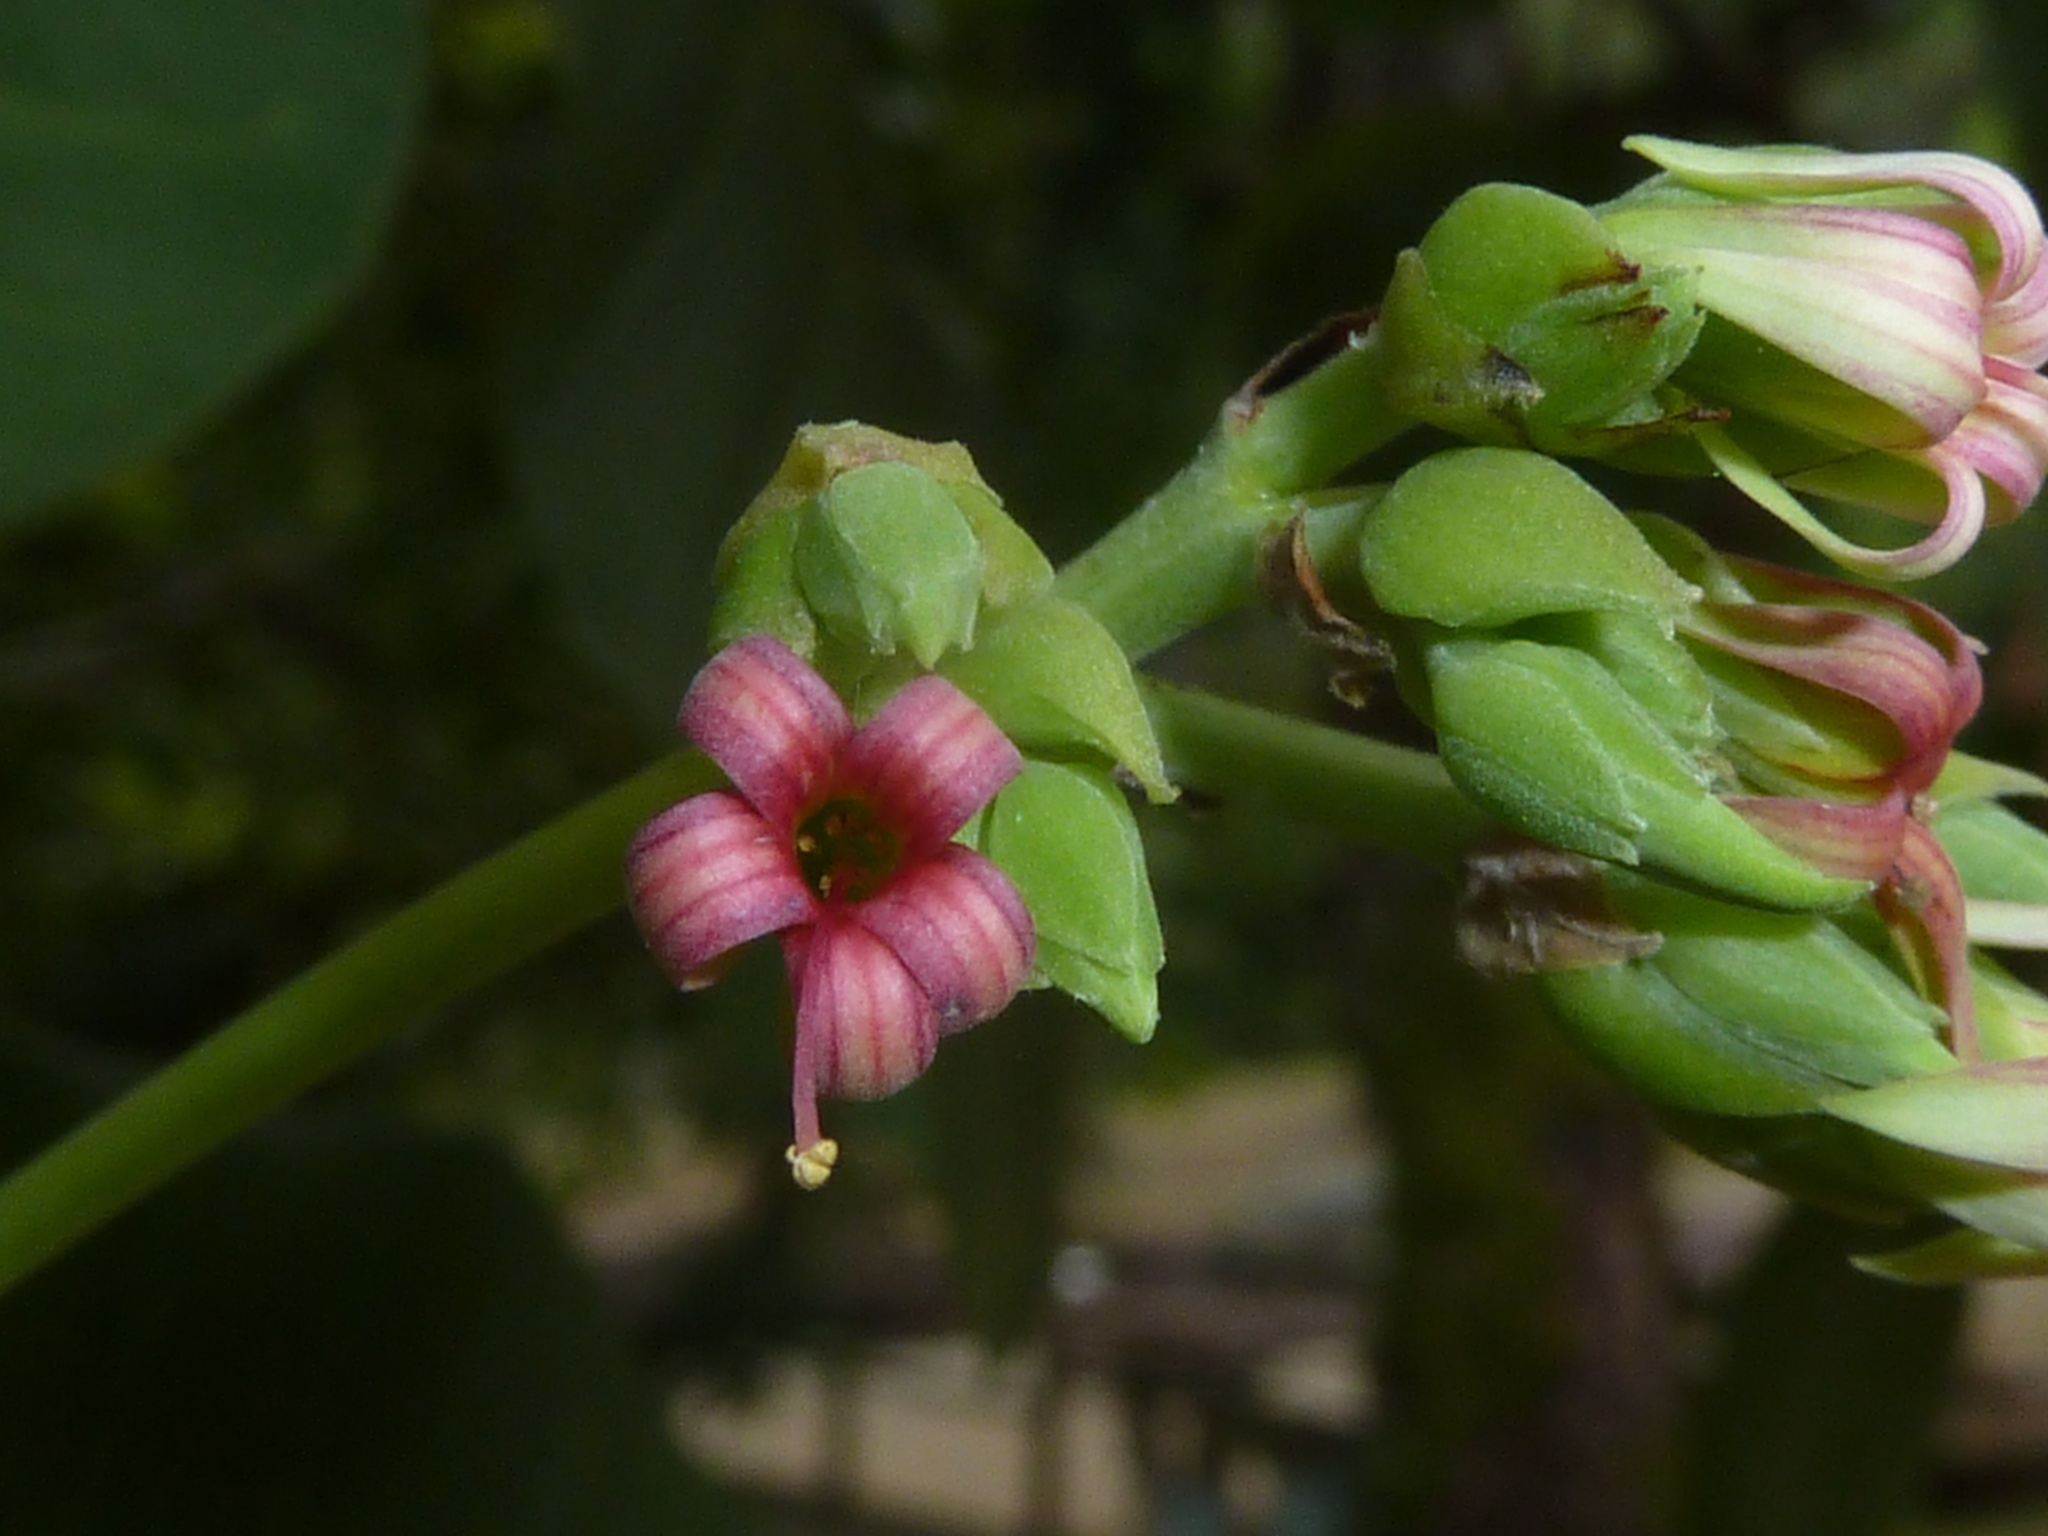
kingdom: Plantae
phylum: Tracheophyta
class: Magnoliopsida
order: Sapindales
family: Anacardiaceae
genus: Anacardium
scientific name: Anacardium occidentale
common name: Cashew
